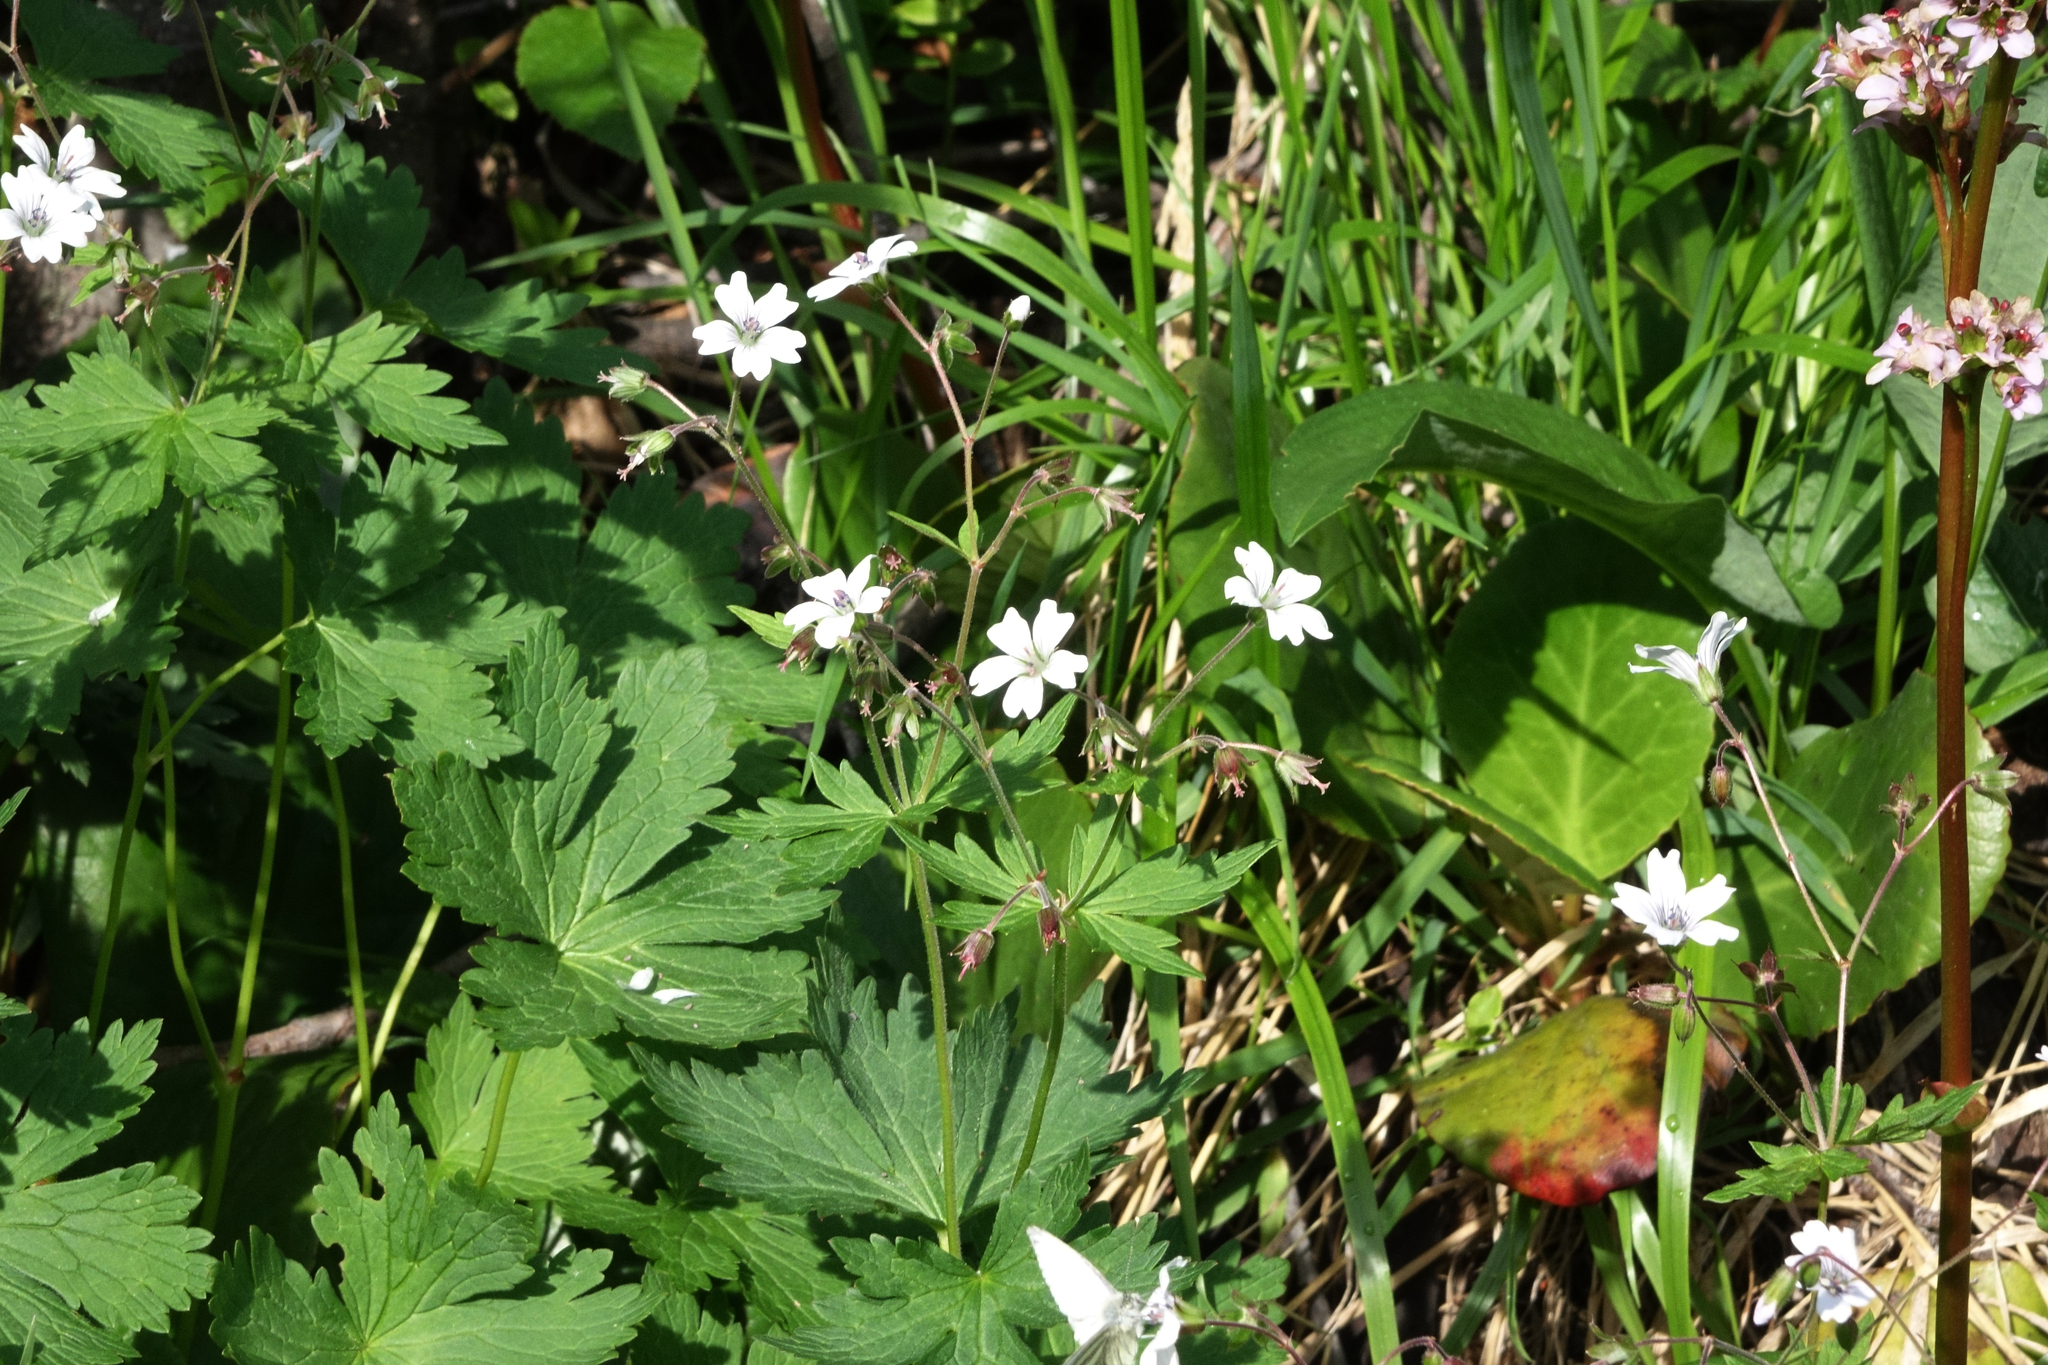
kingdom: Plantae
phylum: Tracheophyta
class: Magnoliopsida
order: Geraniales
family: Geraniaceae
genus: Geranium
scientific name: Geranium sylvaticum
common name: Wood crane's-bill
